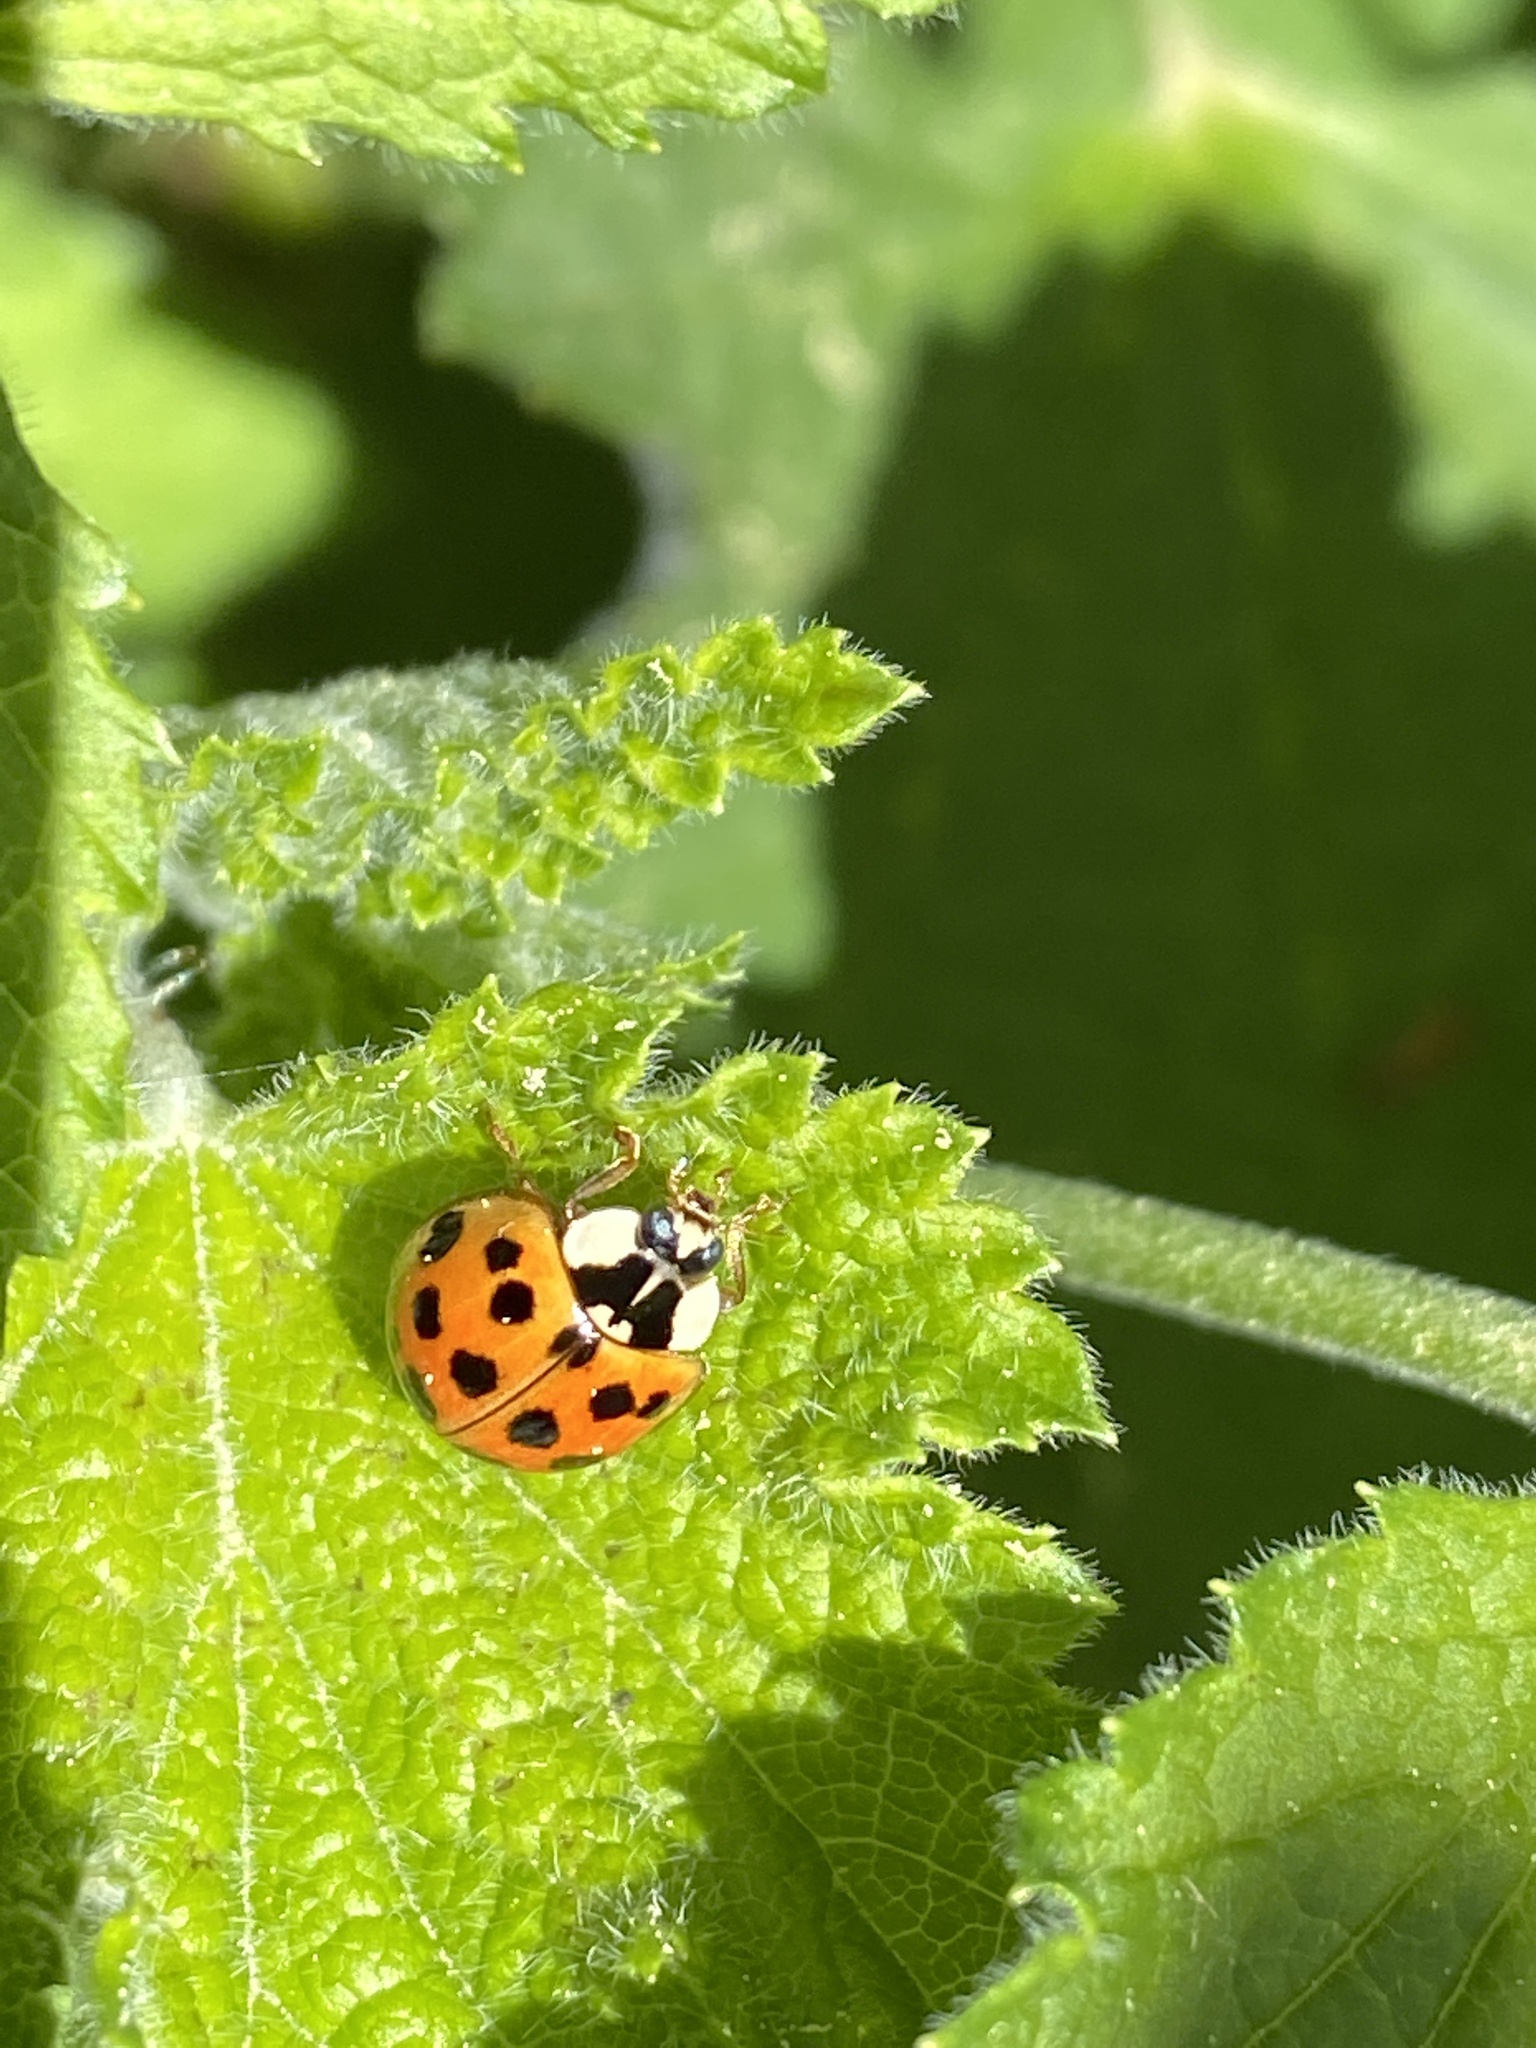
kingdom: Animalia
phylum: Arthropoda
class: Insecta
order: Coleoptera
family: Coccinellidae
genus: Harmonia
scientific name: Harmonia axyridis
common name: Harlequin ladybird
